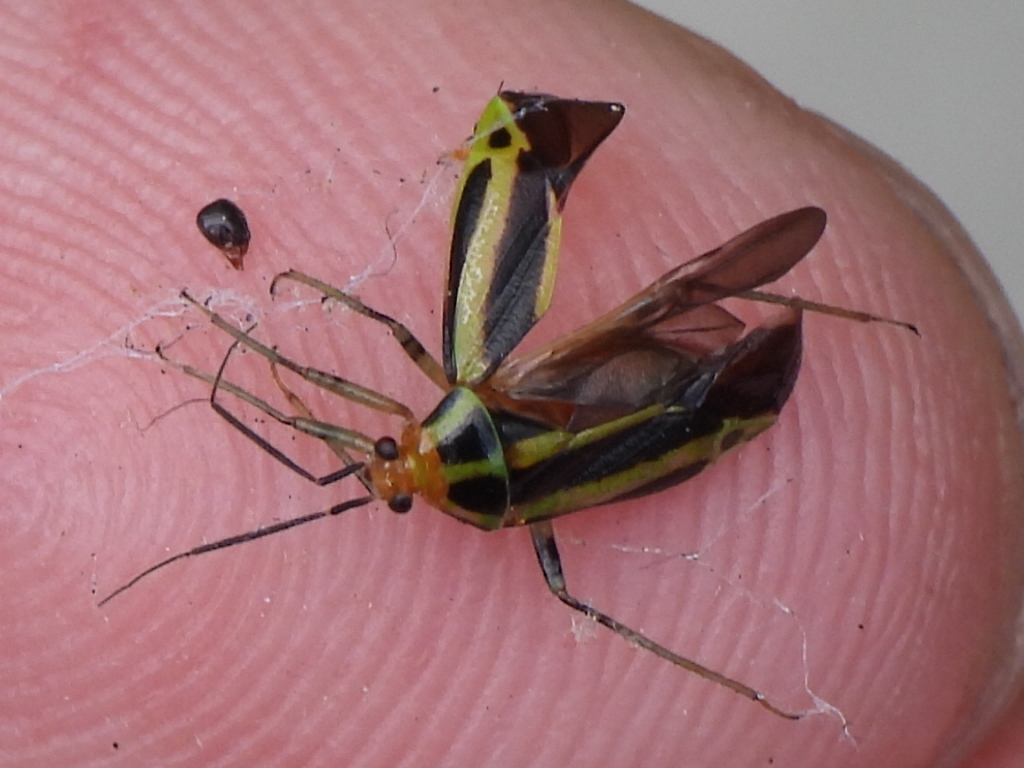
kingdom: Animalia
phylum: Arthropoda
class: Insecta
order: Hemiptera
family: Miridae
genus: Poecilocapsus
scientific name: Poecilocapsus lineatus
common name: Four-lined plant bug
